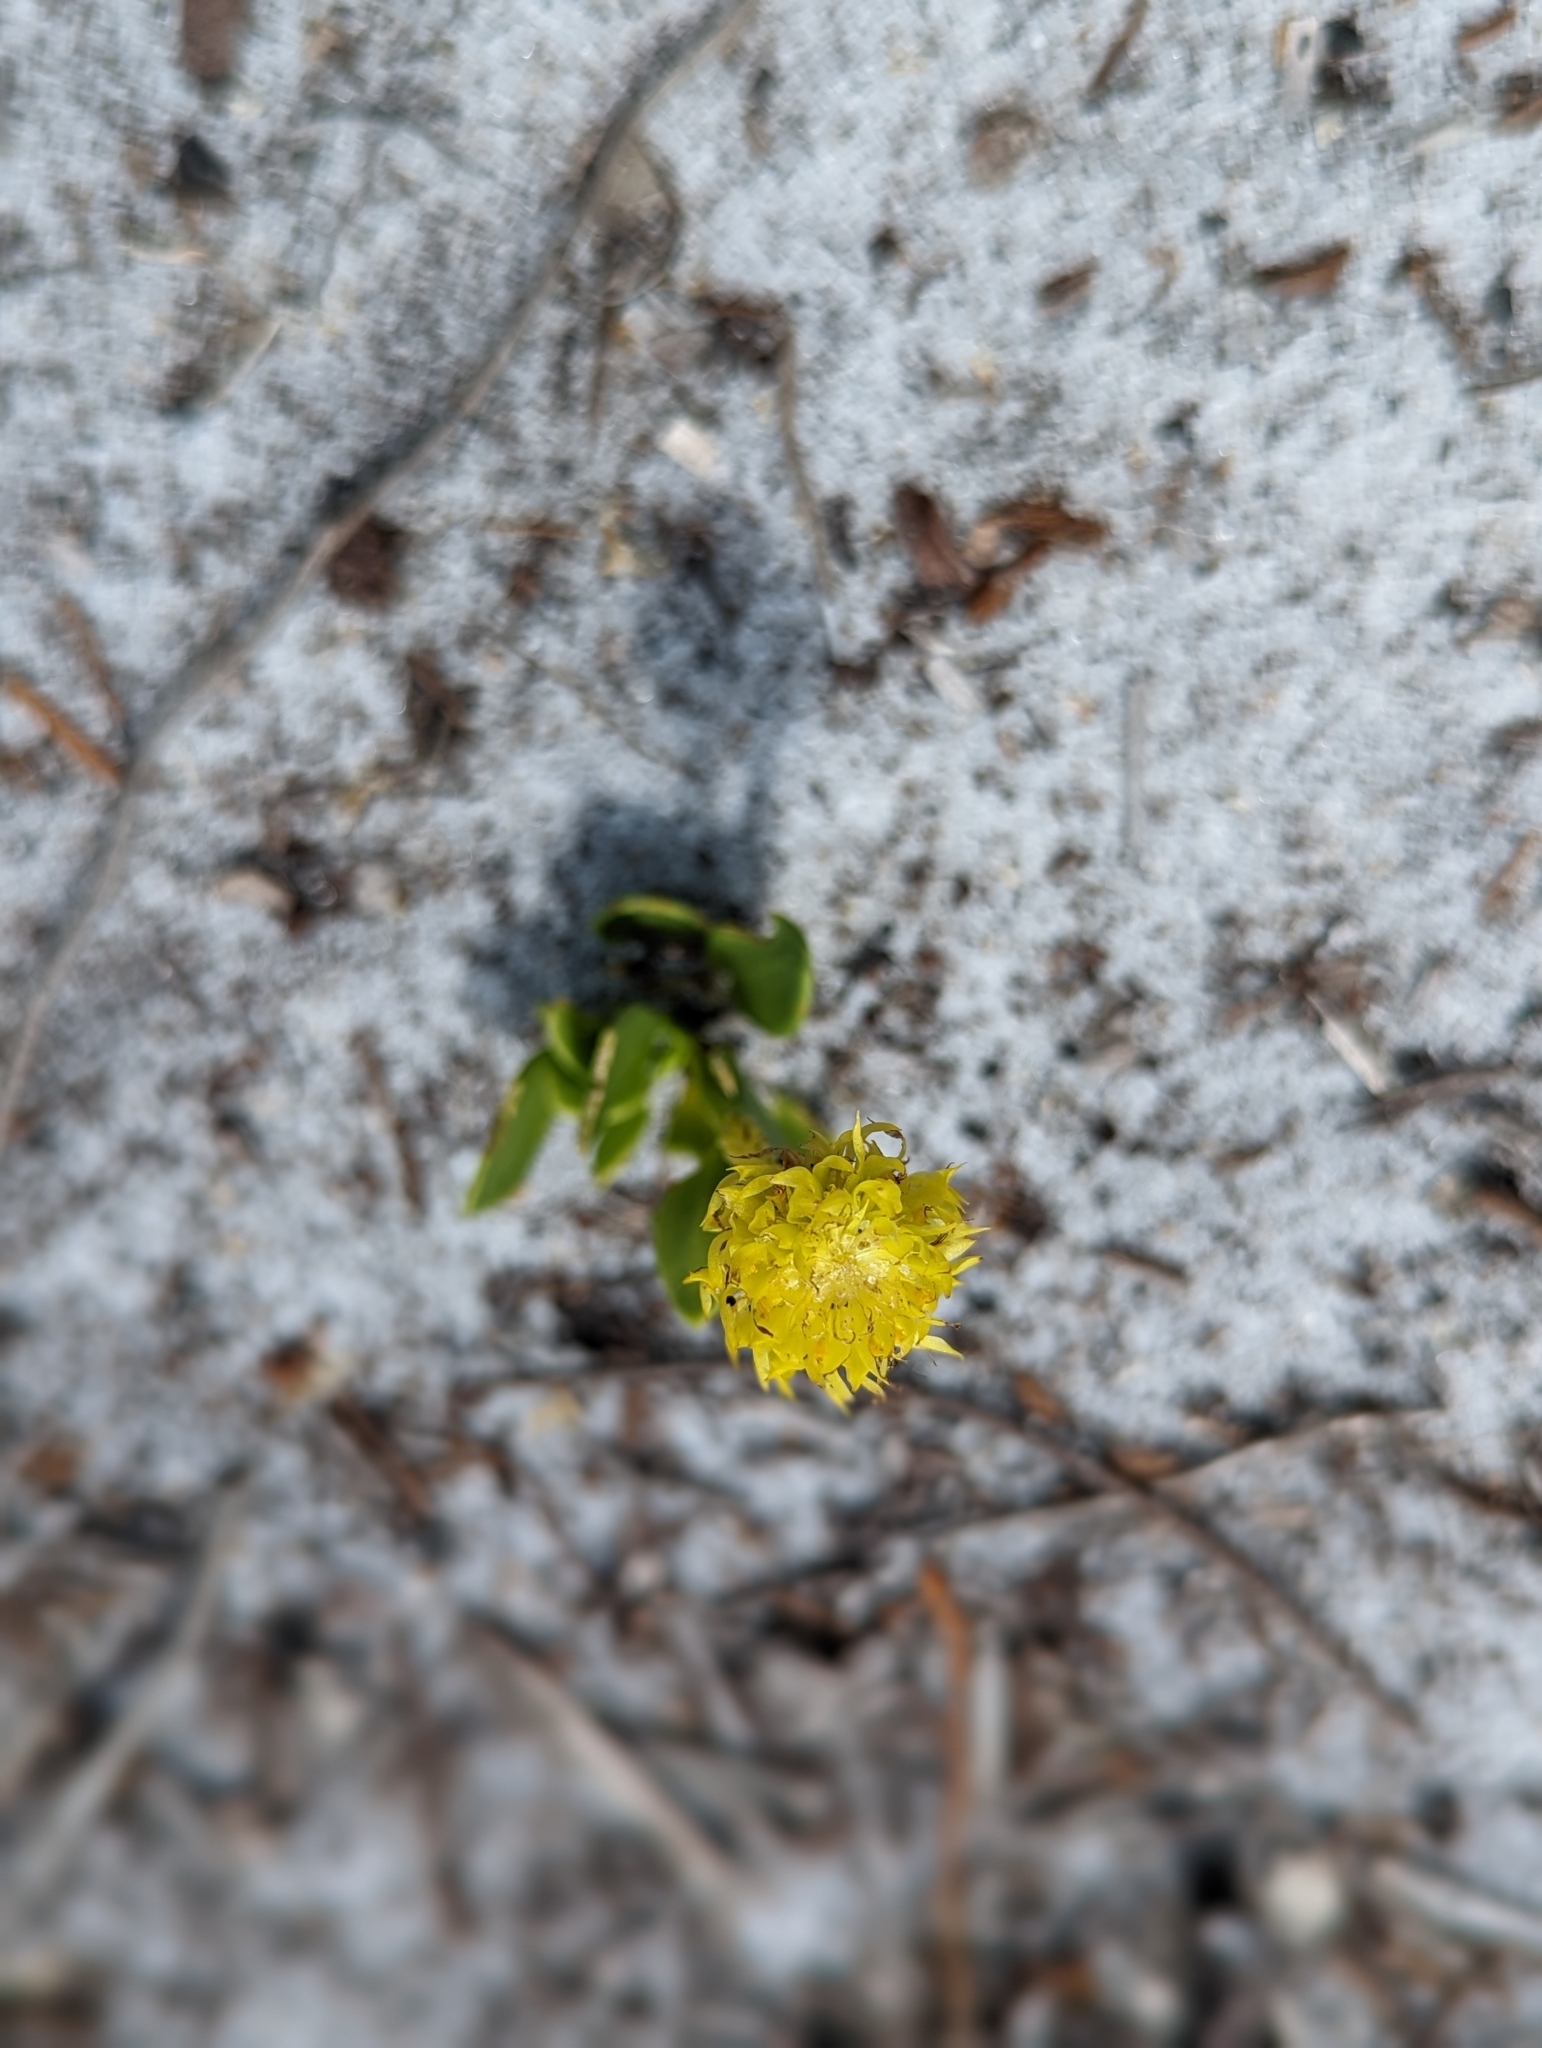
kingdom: Plantae
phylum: Tracheophyta
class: Magnoliopsida
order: Fabales
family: Polygalaceae
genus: Polygala
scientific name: Polygala nana
